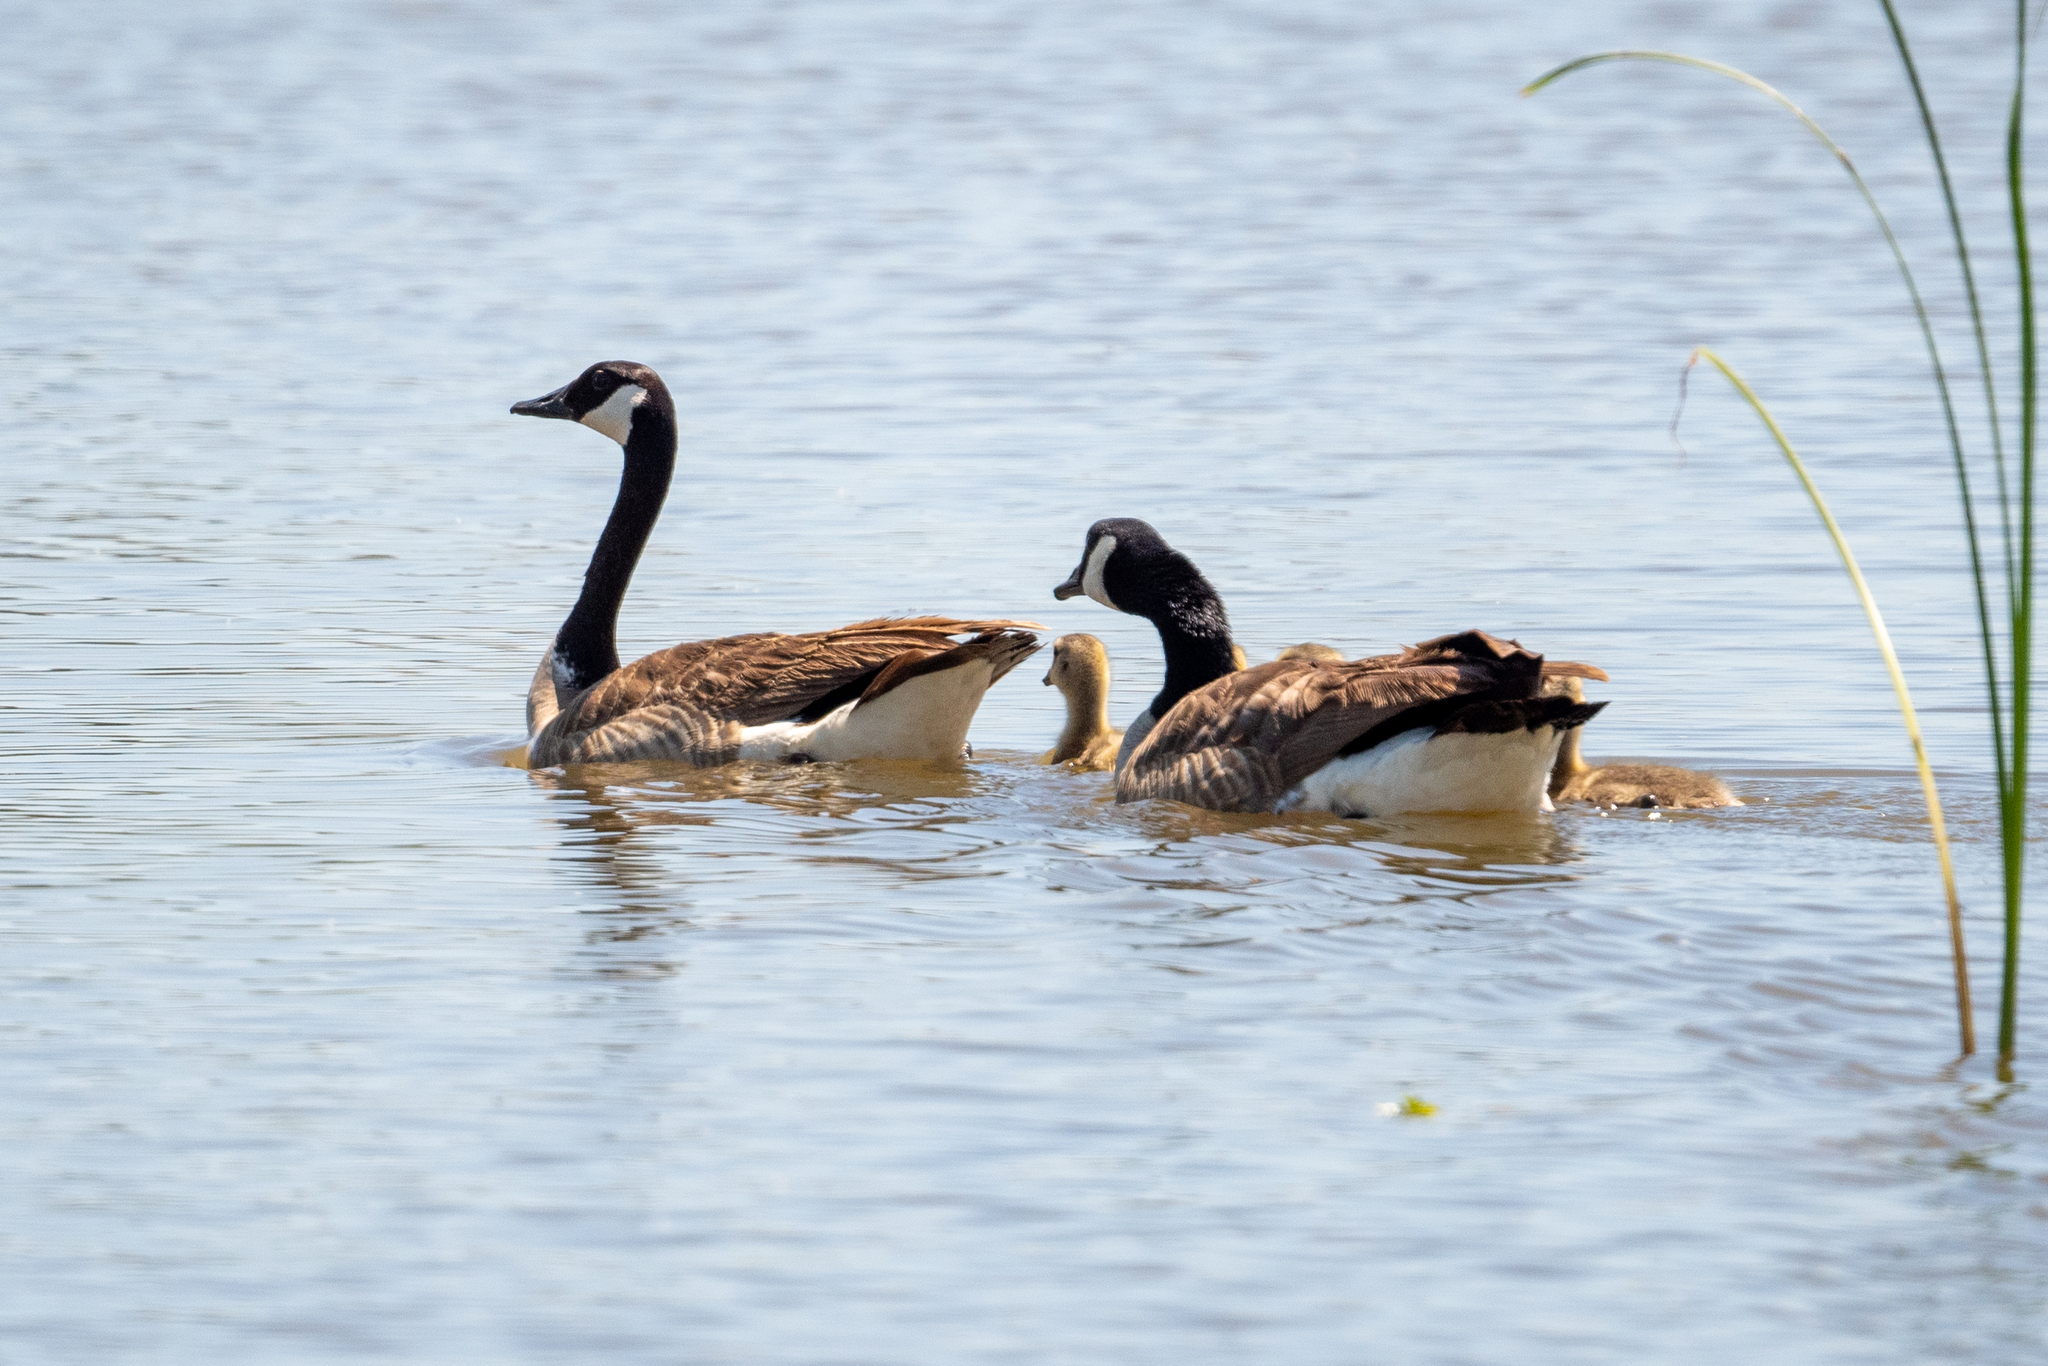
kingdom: Animalia
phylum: Chordata
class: Aves
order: Anseriformes
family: Anatidae
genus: Branta
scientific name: Branta canadensis
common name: Canada goose
